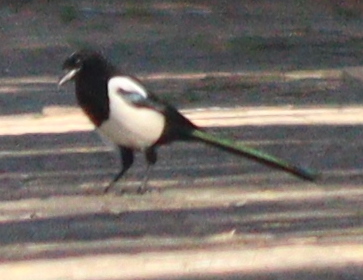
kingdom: Animalia
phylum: Chordata
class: Aves
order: Passeriformes
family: Corvidae
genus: Pica
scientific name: Pica pica
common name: Eurasian magpie
